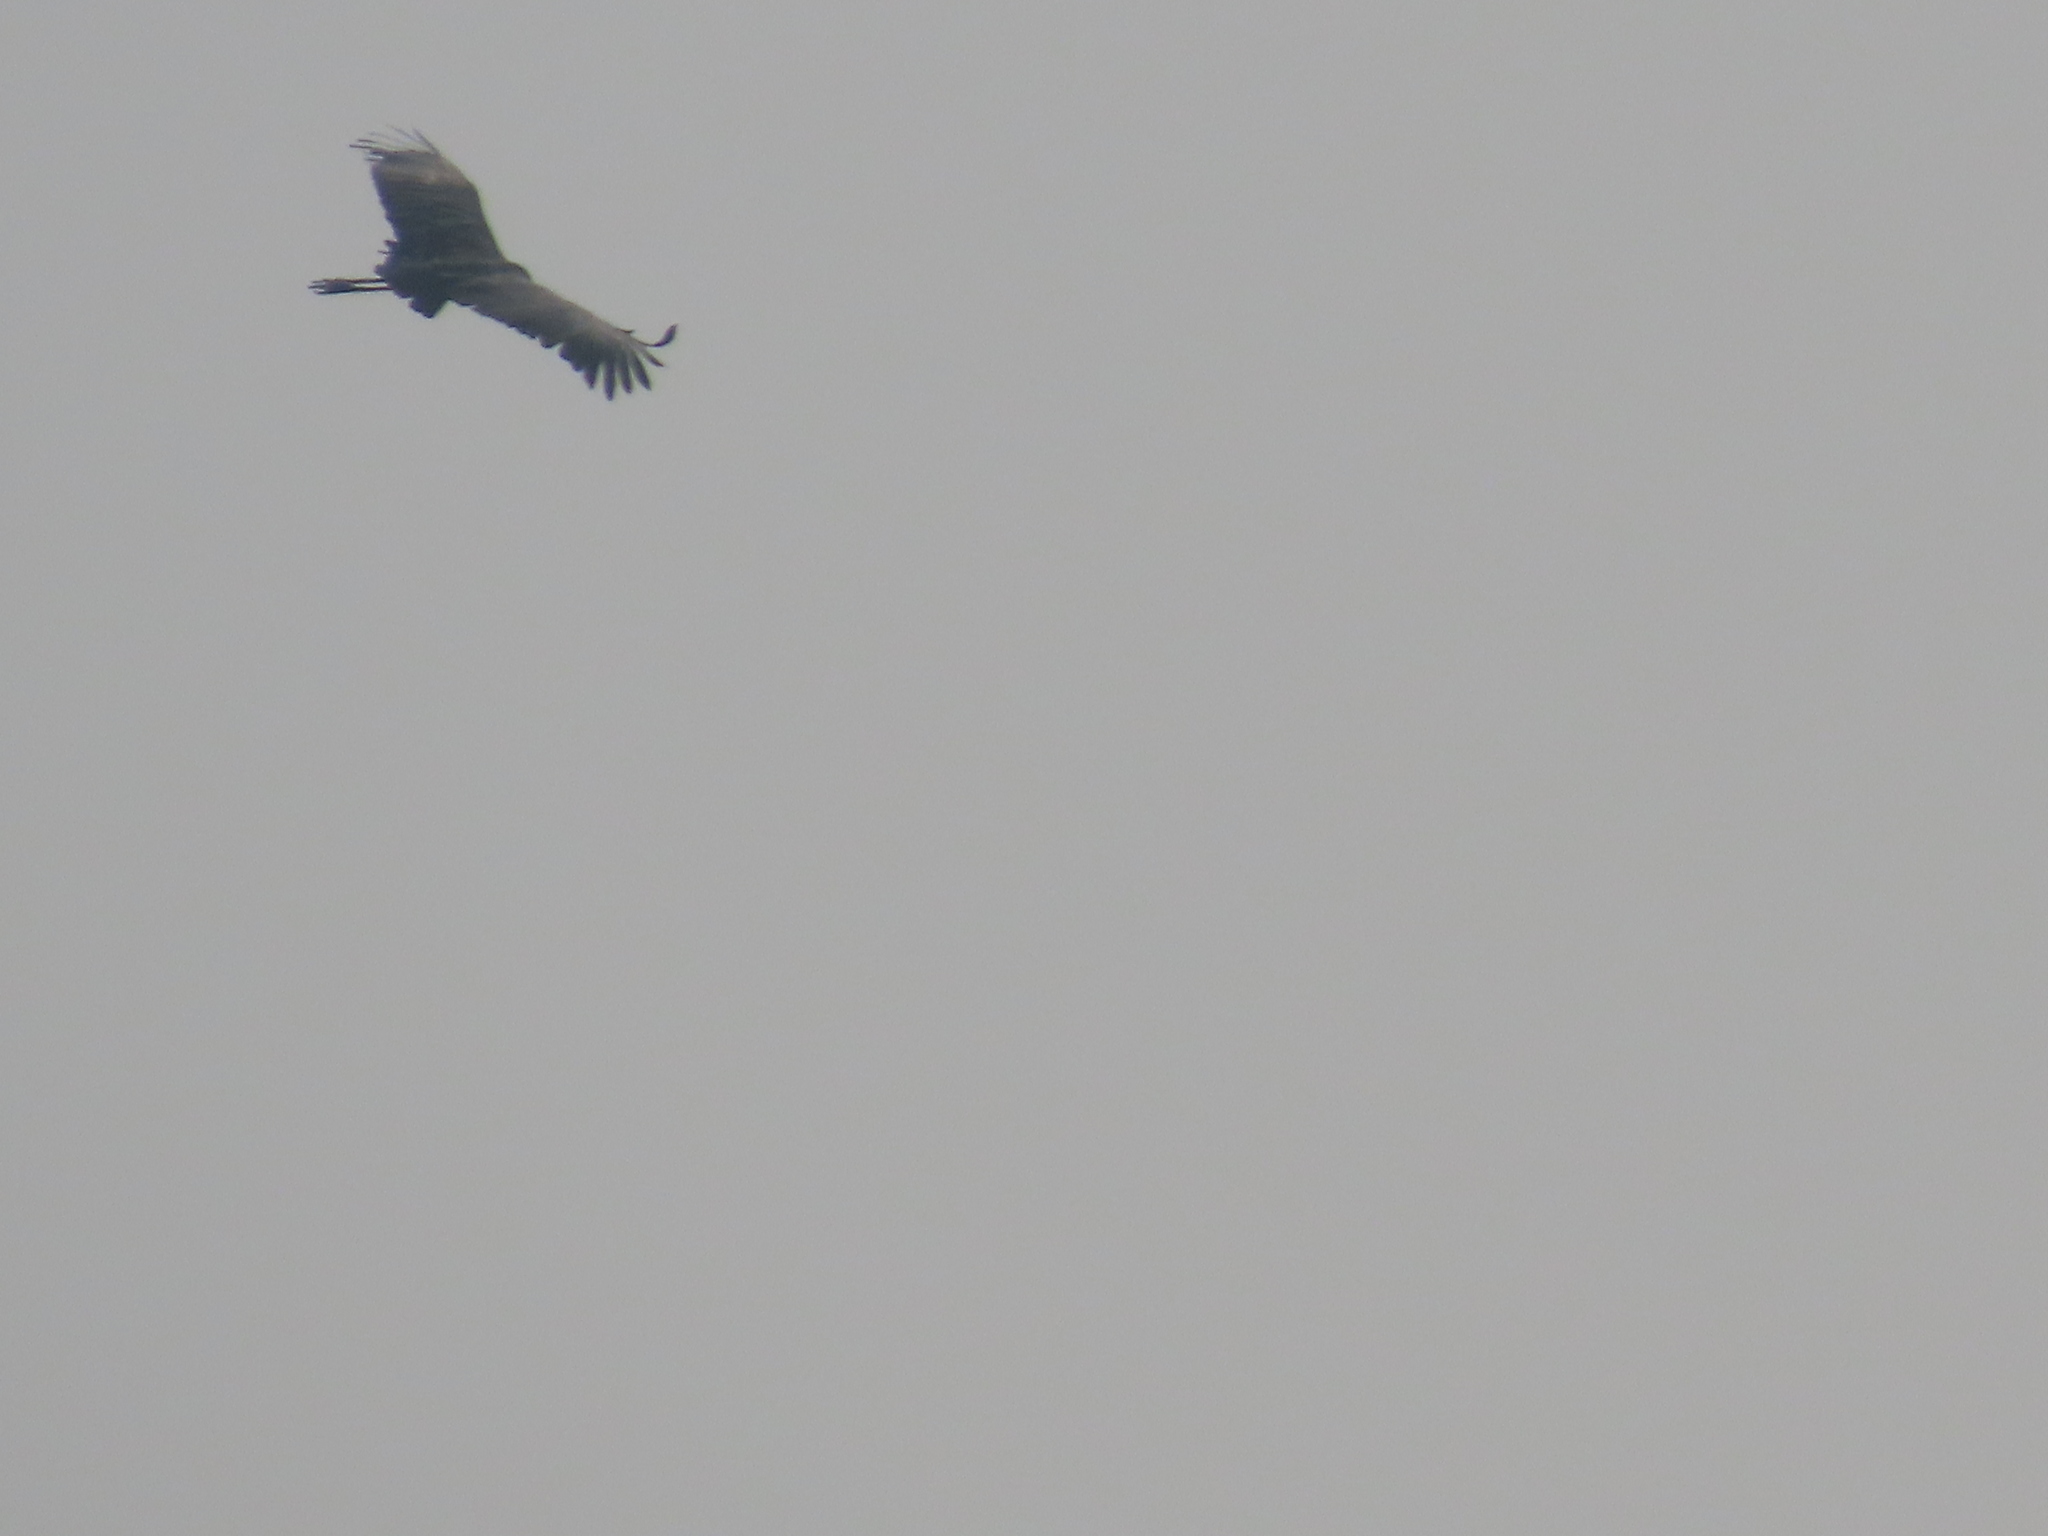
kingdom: Animalia
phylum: Chordata
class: Aves
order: Ciconiiformes
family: Ciconiidae
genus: Leptoptilos
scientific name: Leptoptilos javanicus
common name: Lesser adjutant
